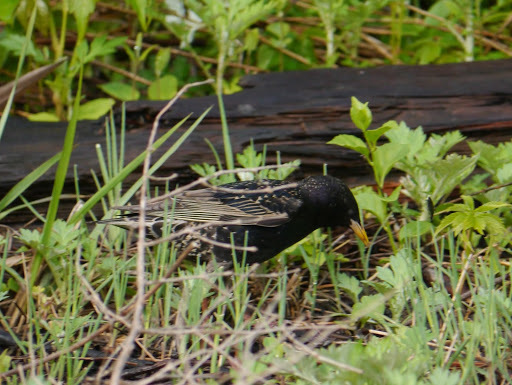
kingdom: Animalia
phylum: Chordata
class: Aves
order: Passeriformes
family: Sturnidae
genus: Sturnus
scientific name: Sturnus vulgaris
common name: Common starling
